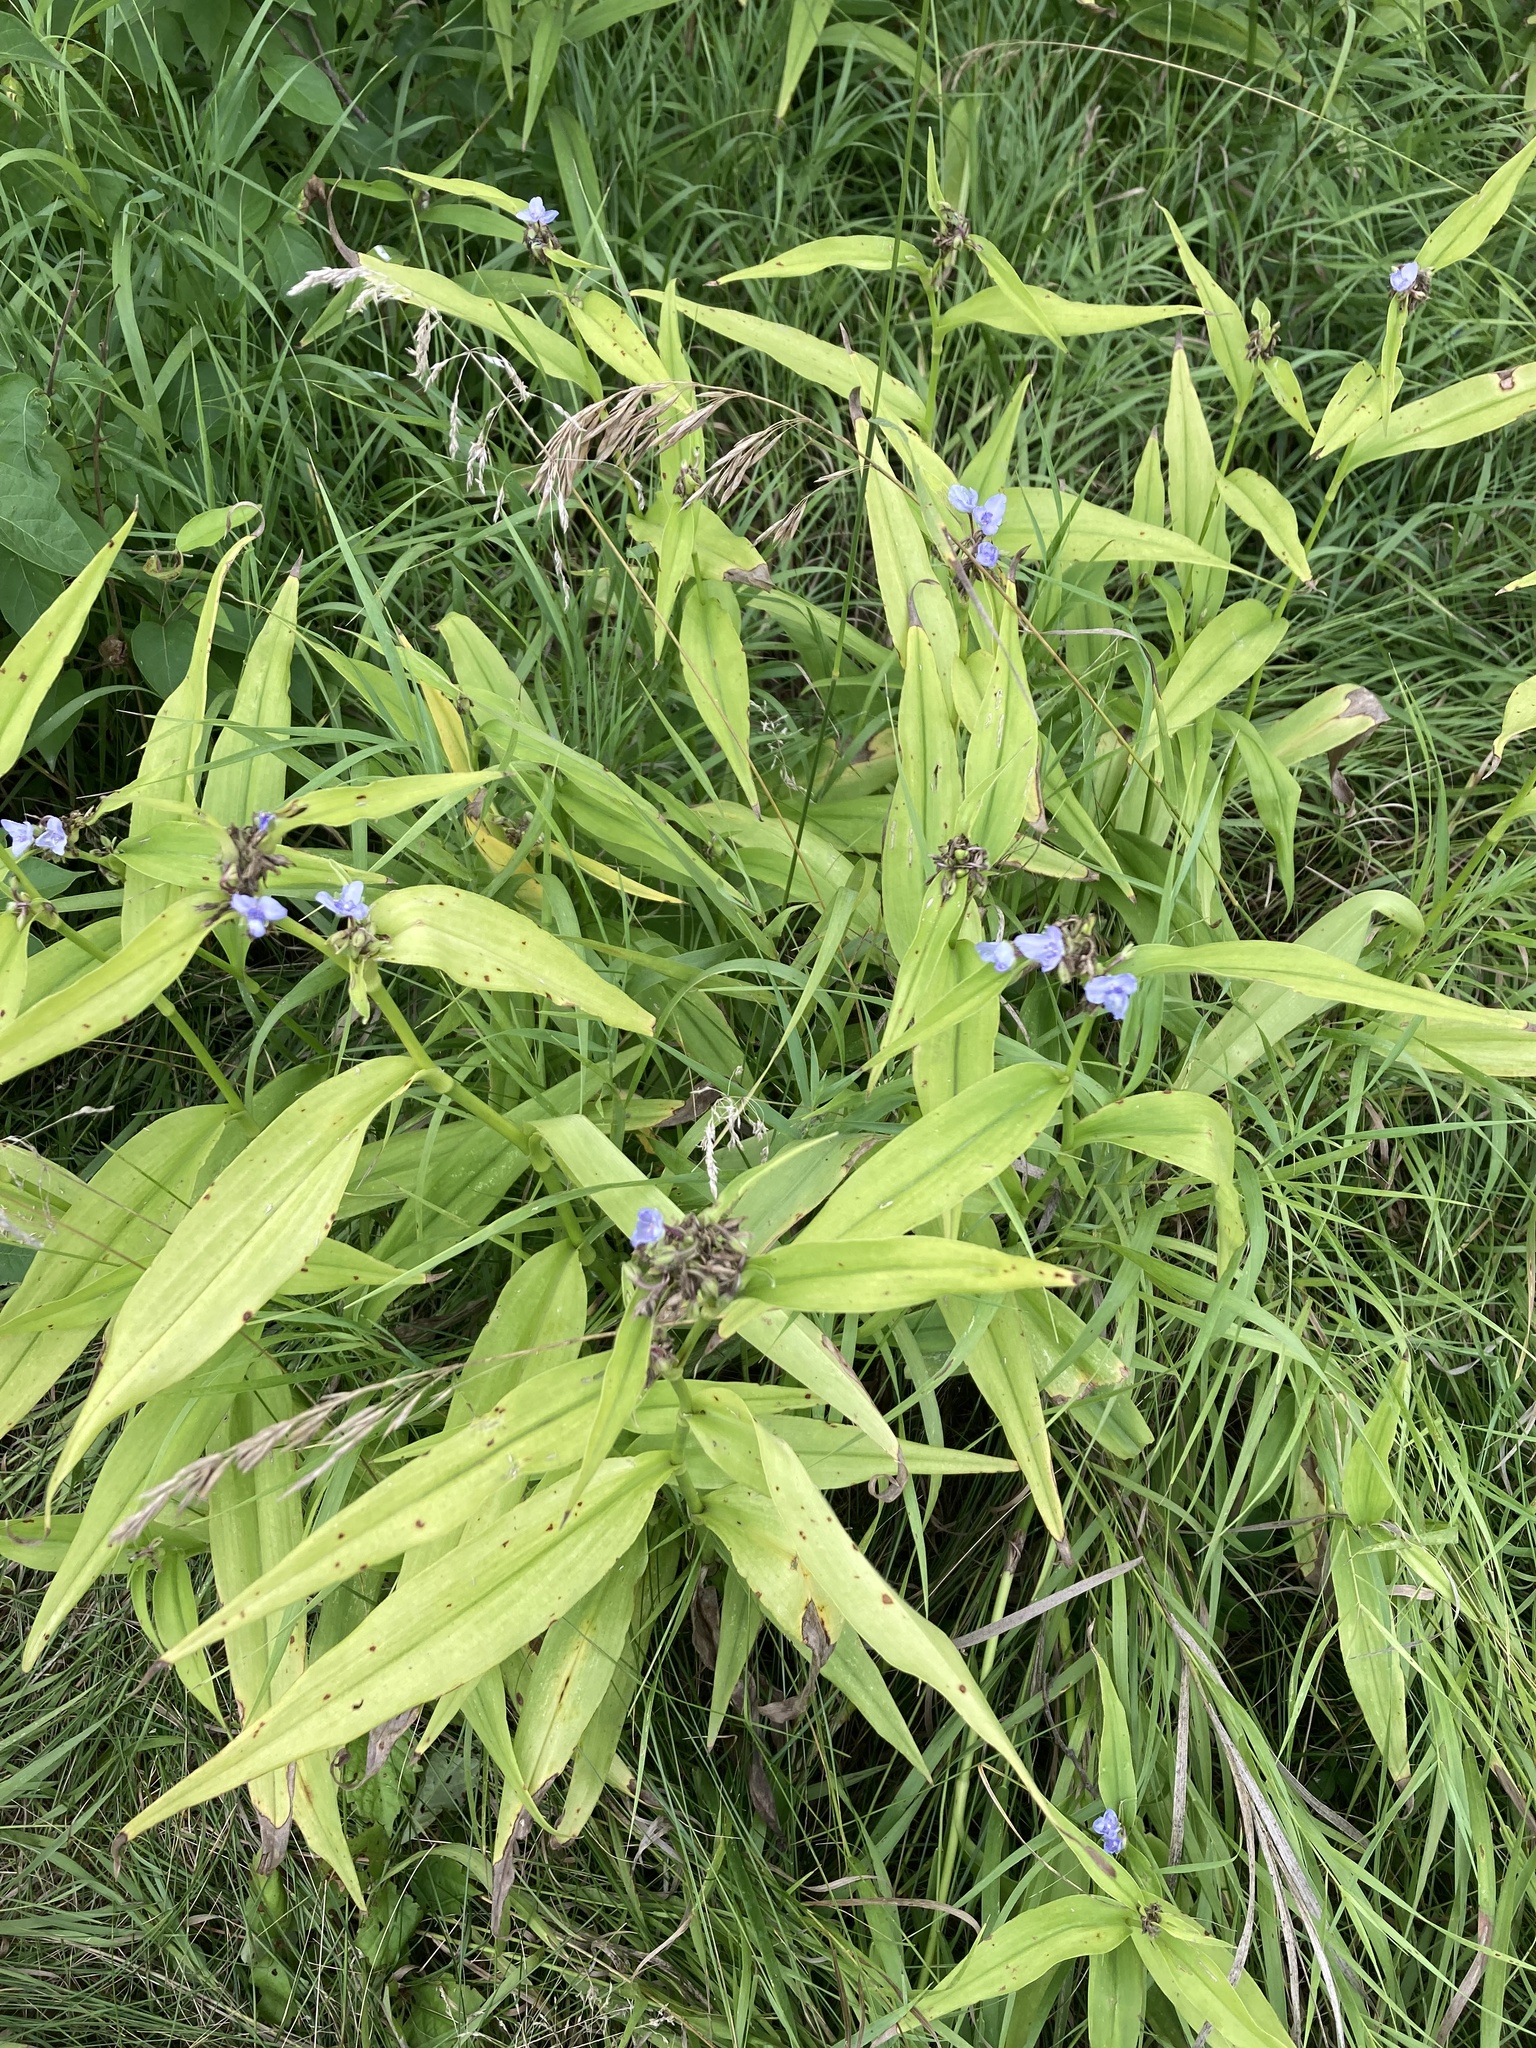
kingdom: Plantae
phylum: Tracheophyta
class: Liliopsida
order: Commelinales
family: Commelinaceae
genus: Tradescantia
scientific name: Tradescantia subaspera
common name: Wide-leaf spiderwort
